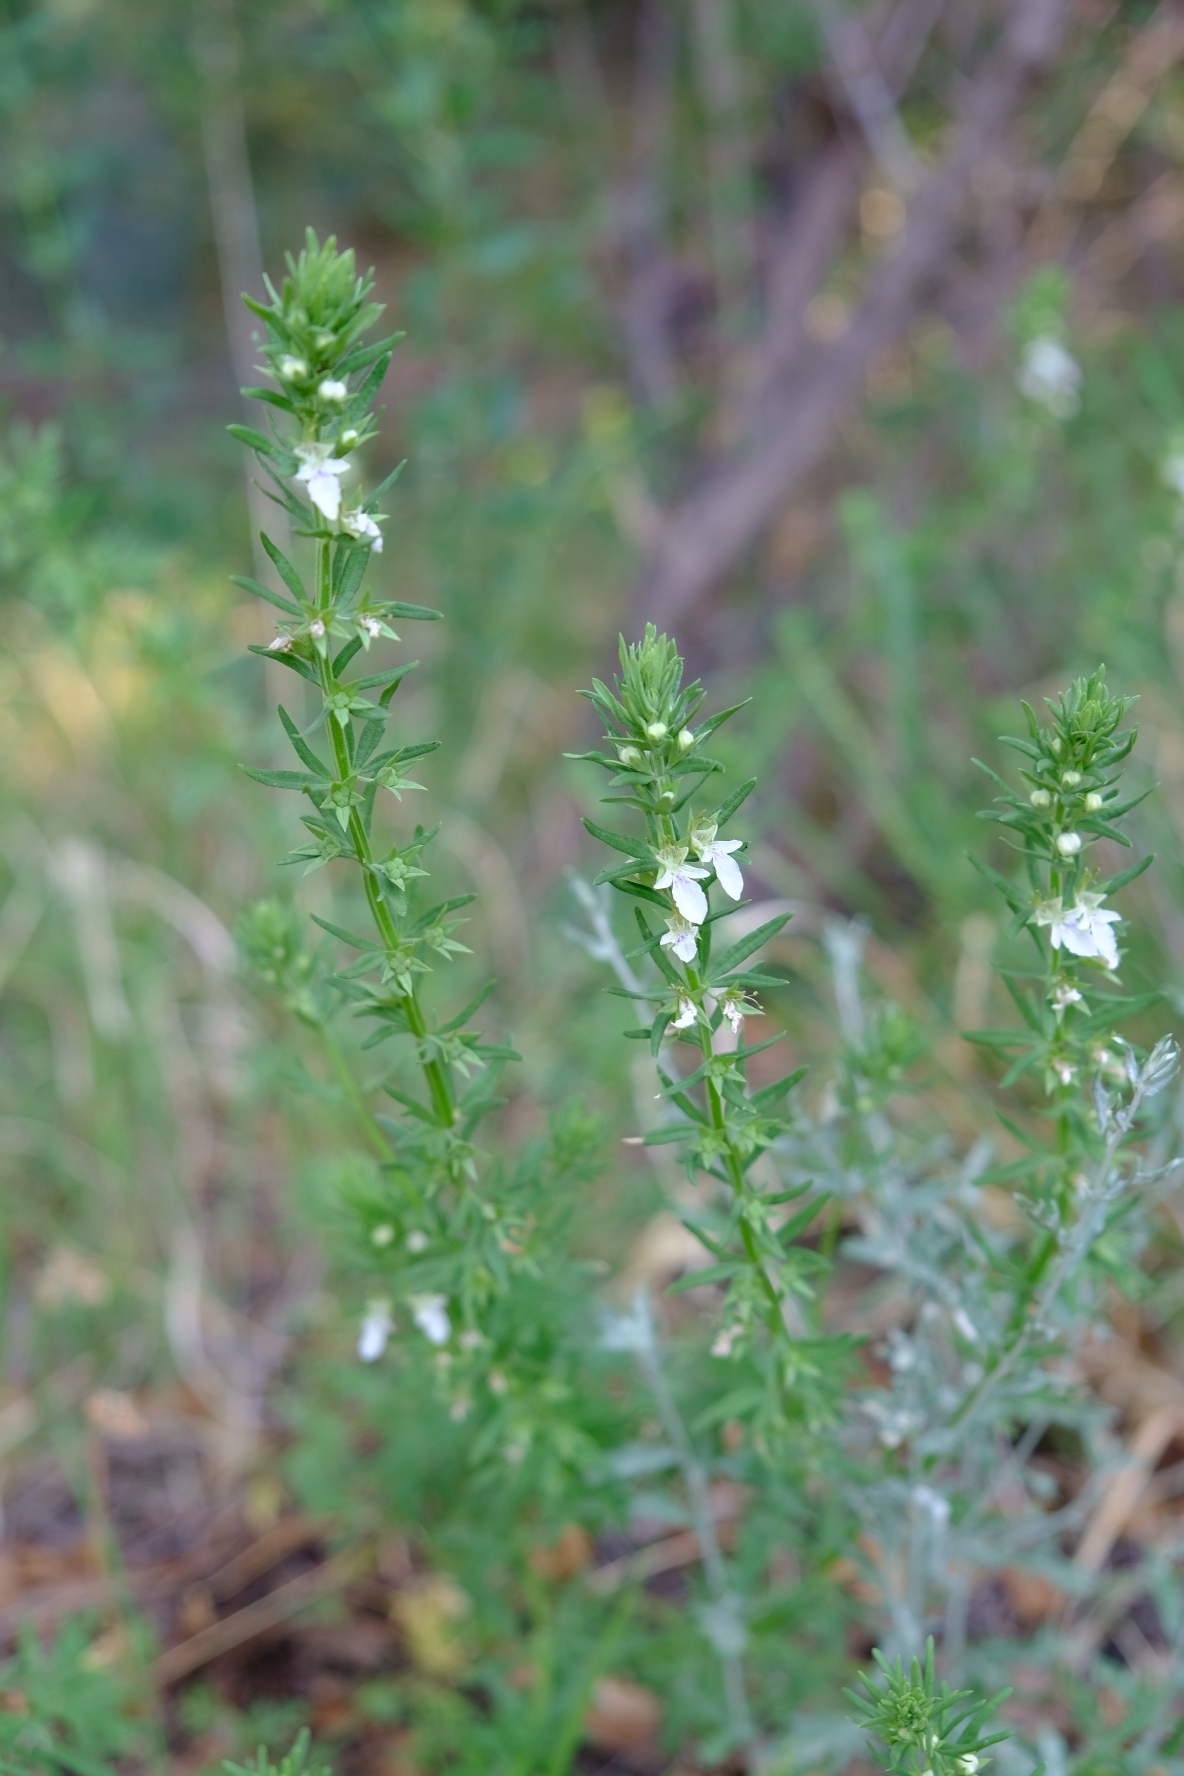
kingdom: Plantae
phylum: Tracheophyta
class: Magnoliopsida
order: Lamiales
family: Lamiaceae
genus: Teucrium
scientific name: Teucrium coahuilanum
